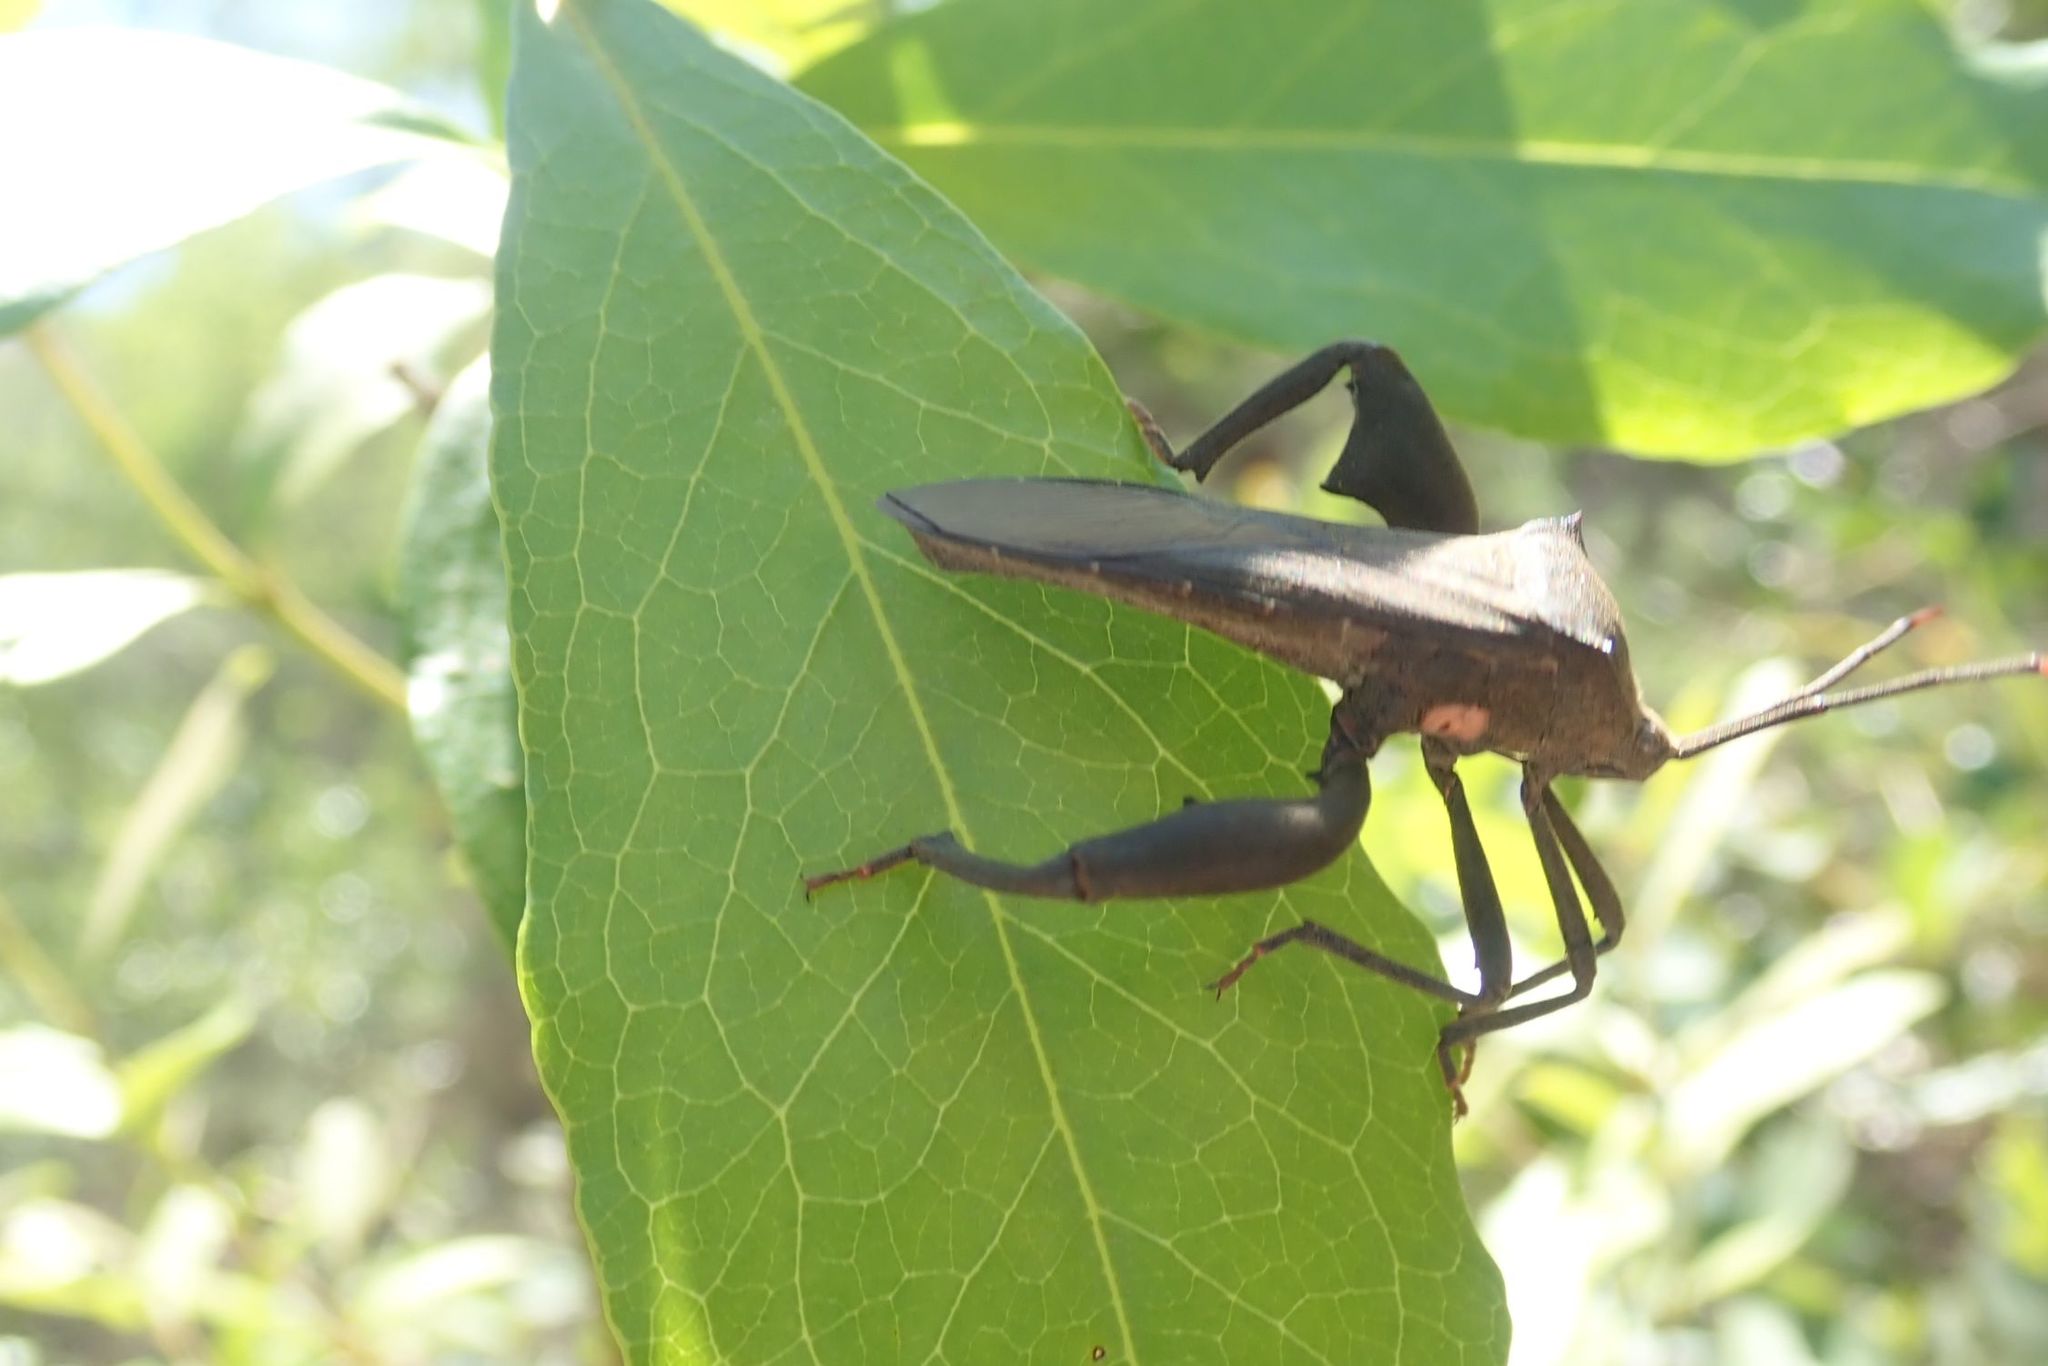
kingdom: Animalia
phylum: Arthropoda
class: Insecta
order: Hemiptera
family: Coreidae
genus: Anoplocnemis
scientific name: Anoplocnemis curvipes
